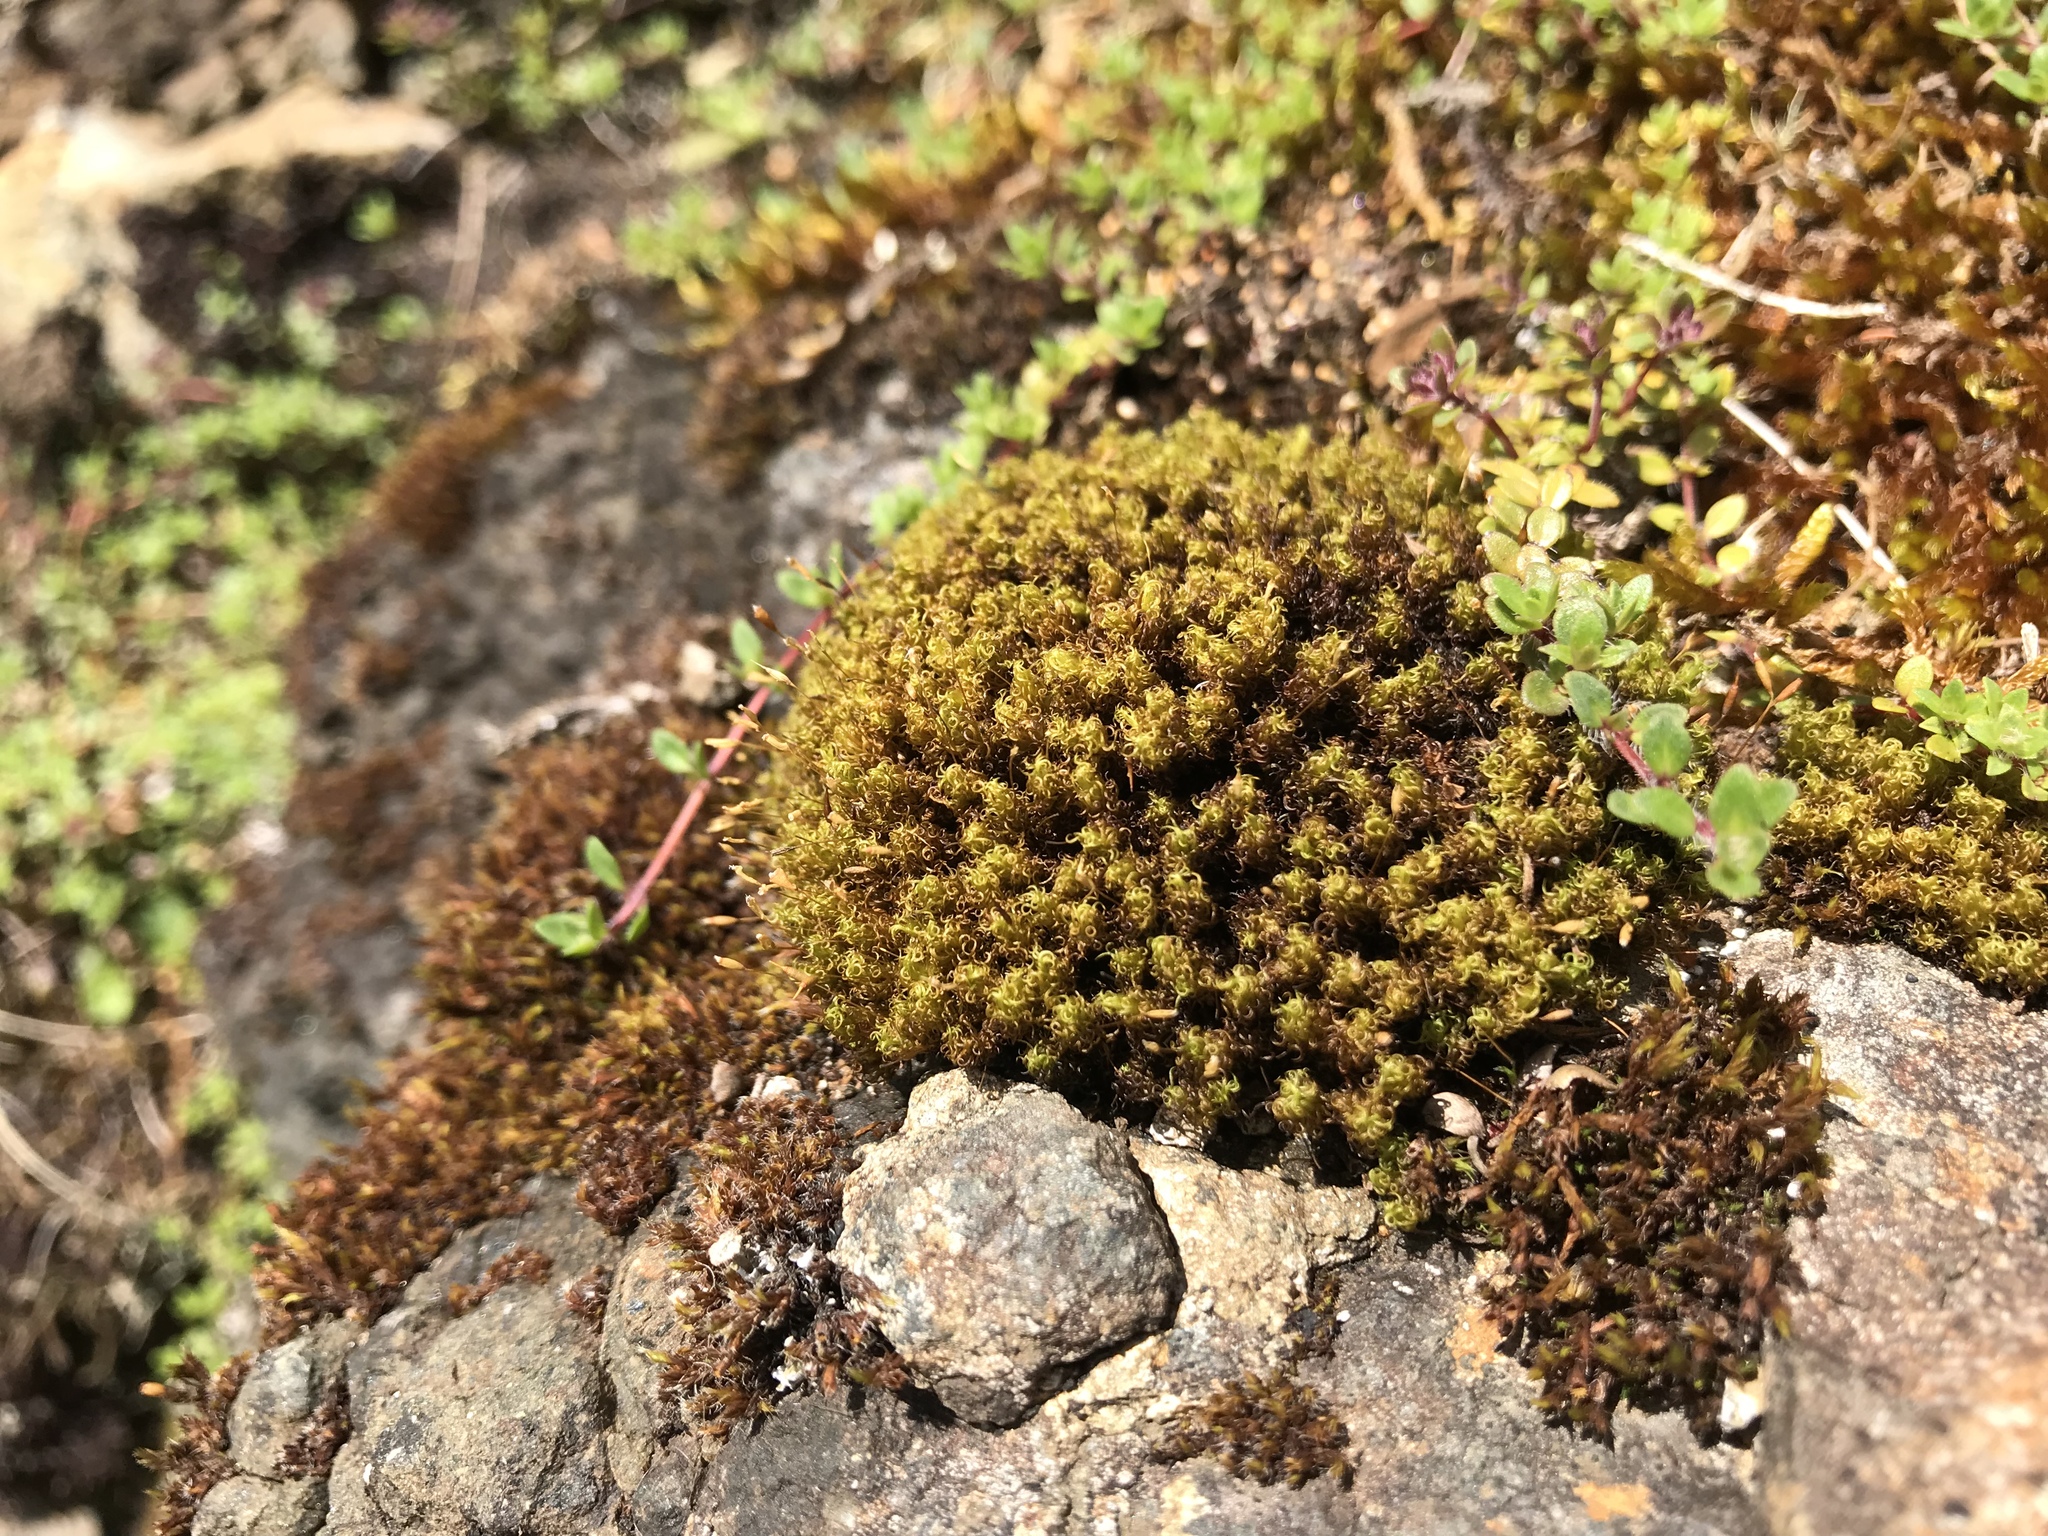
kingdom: Plantae
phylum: Bryophyta
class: Bryopsida
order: Grimmiales
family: Ptychomitriaceae
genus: Ptychomitrium
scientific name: Ptychomitrium polyphyllum
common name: Greater pincushion
